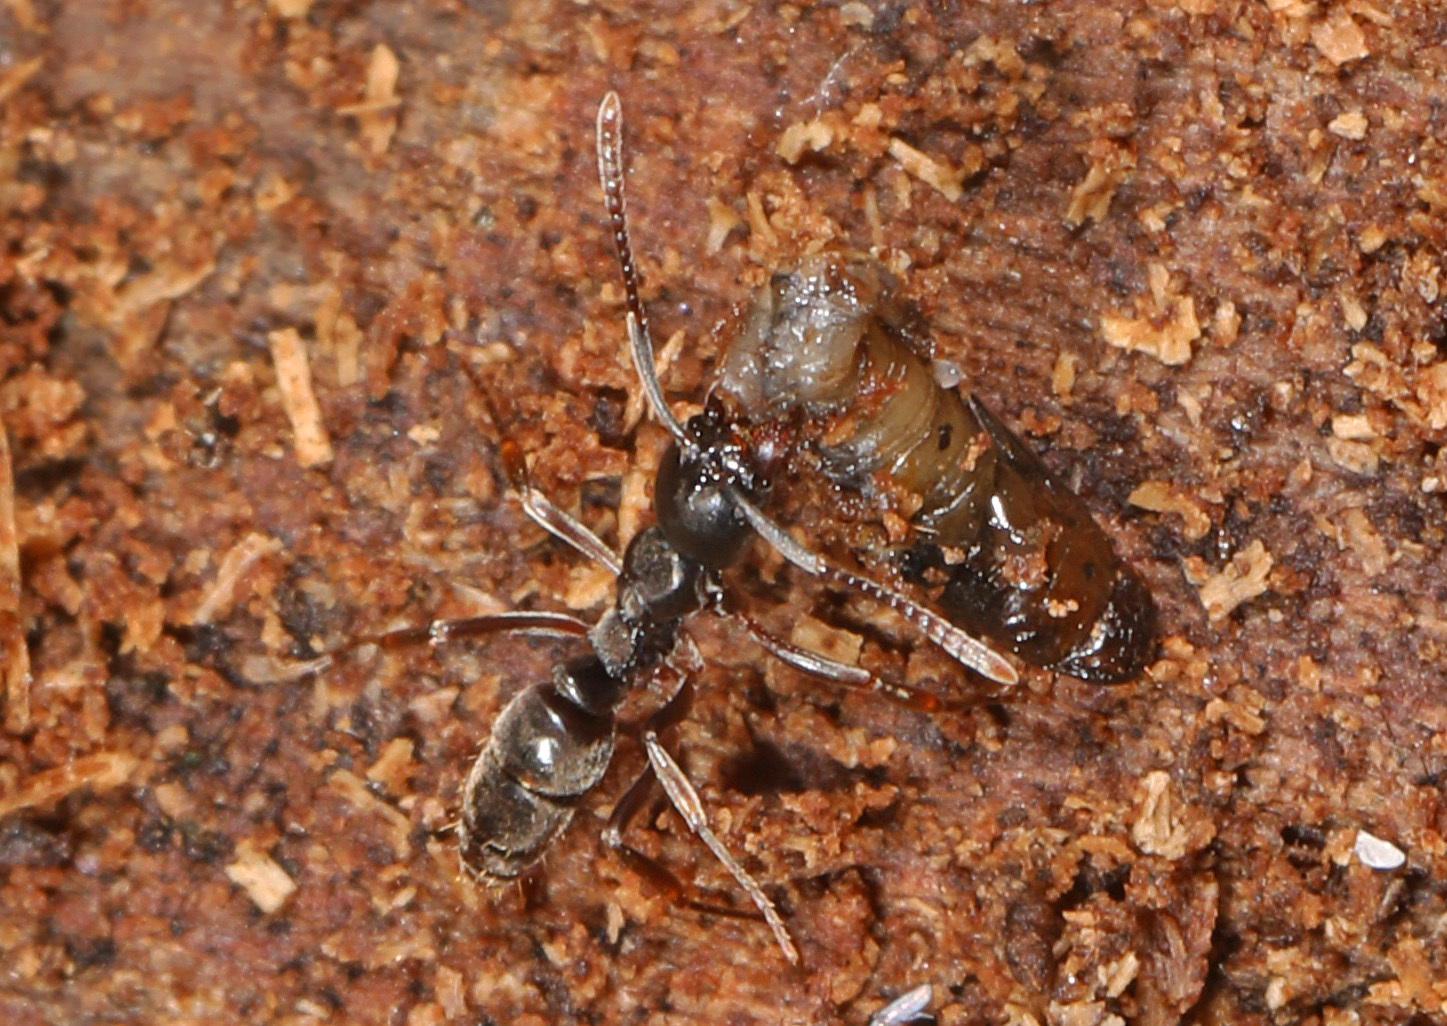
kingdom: Animalia
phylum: Arthropoda
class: Insecta
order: Hymenoptera
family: Formicidae
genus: Pachycondyla
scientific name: Pachycondyla chinensis
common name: Asian needle ant
